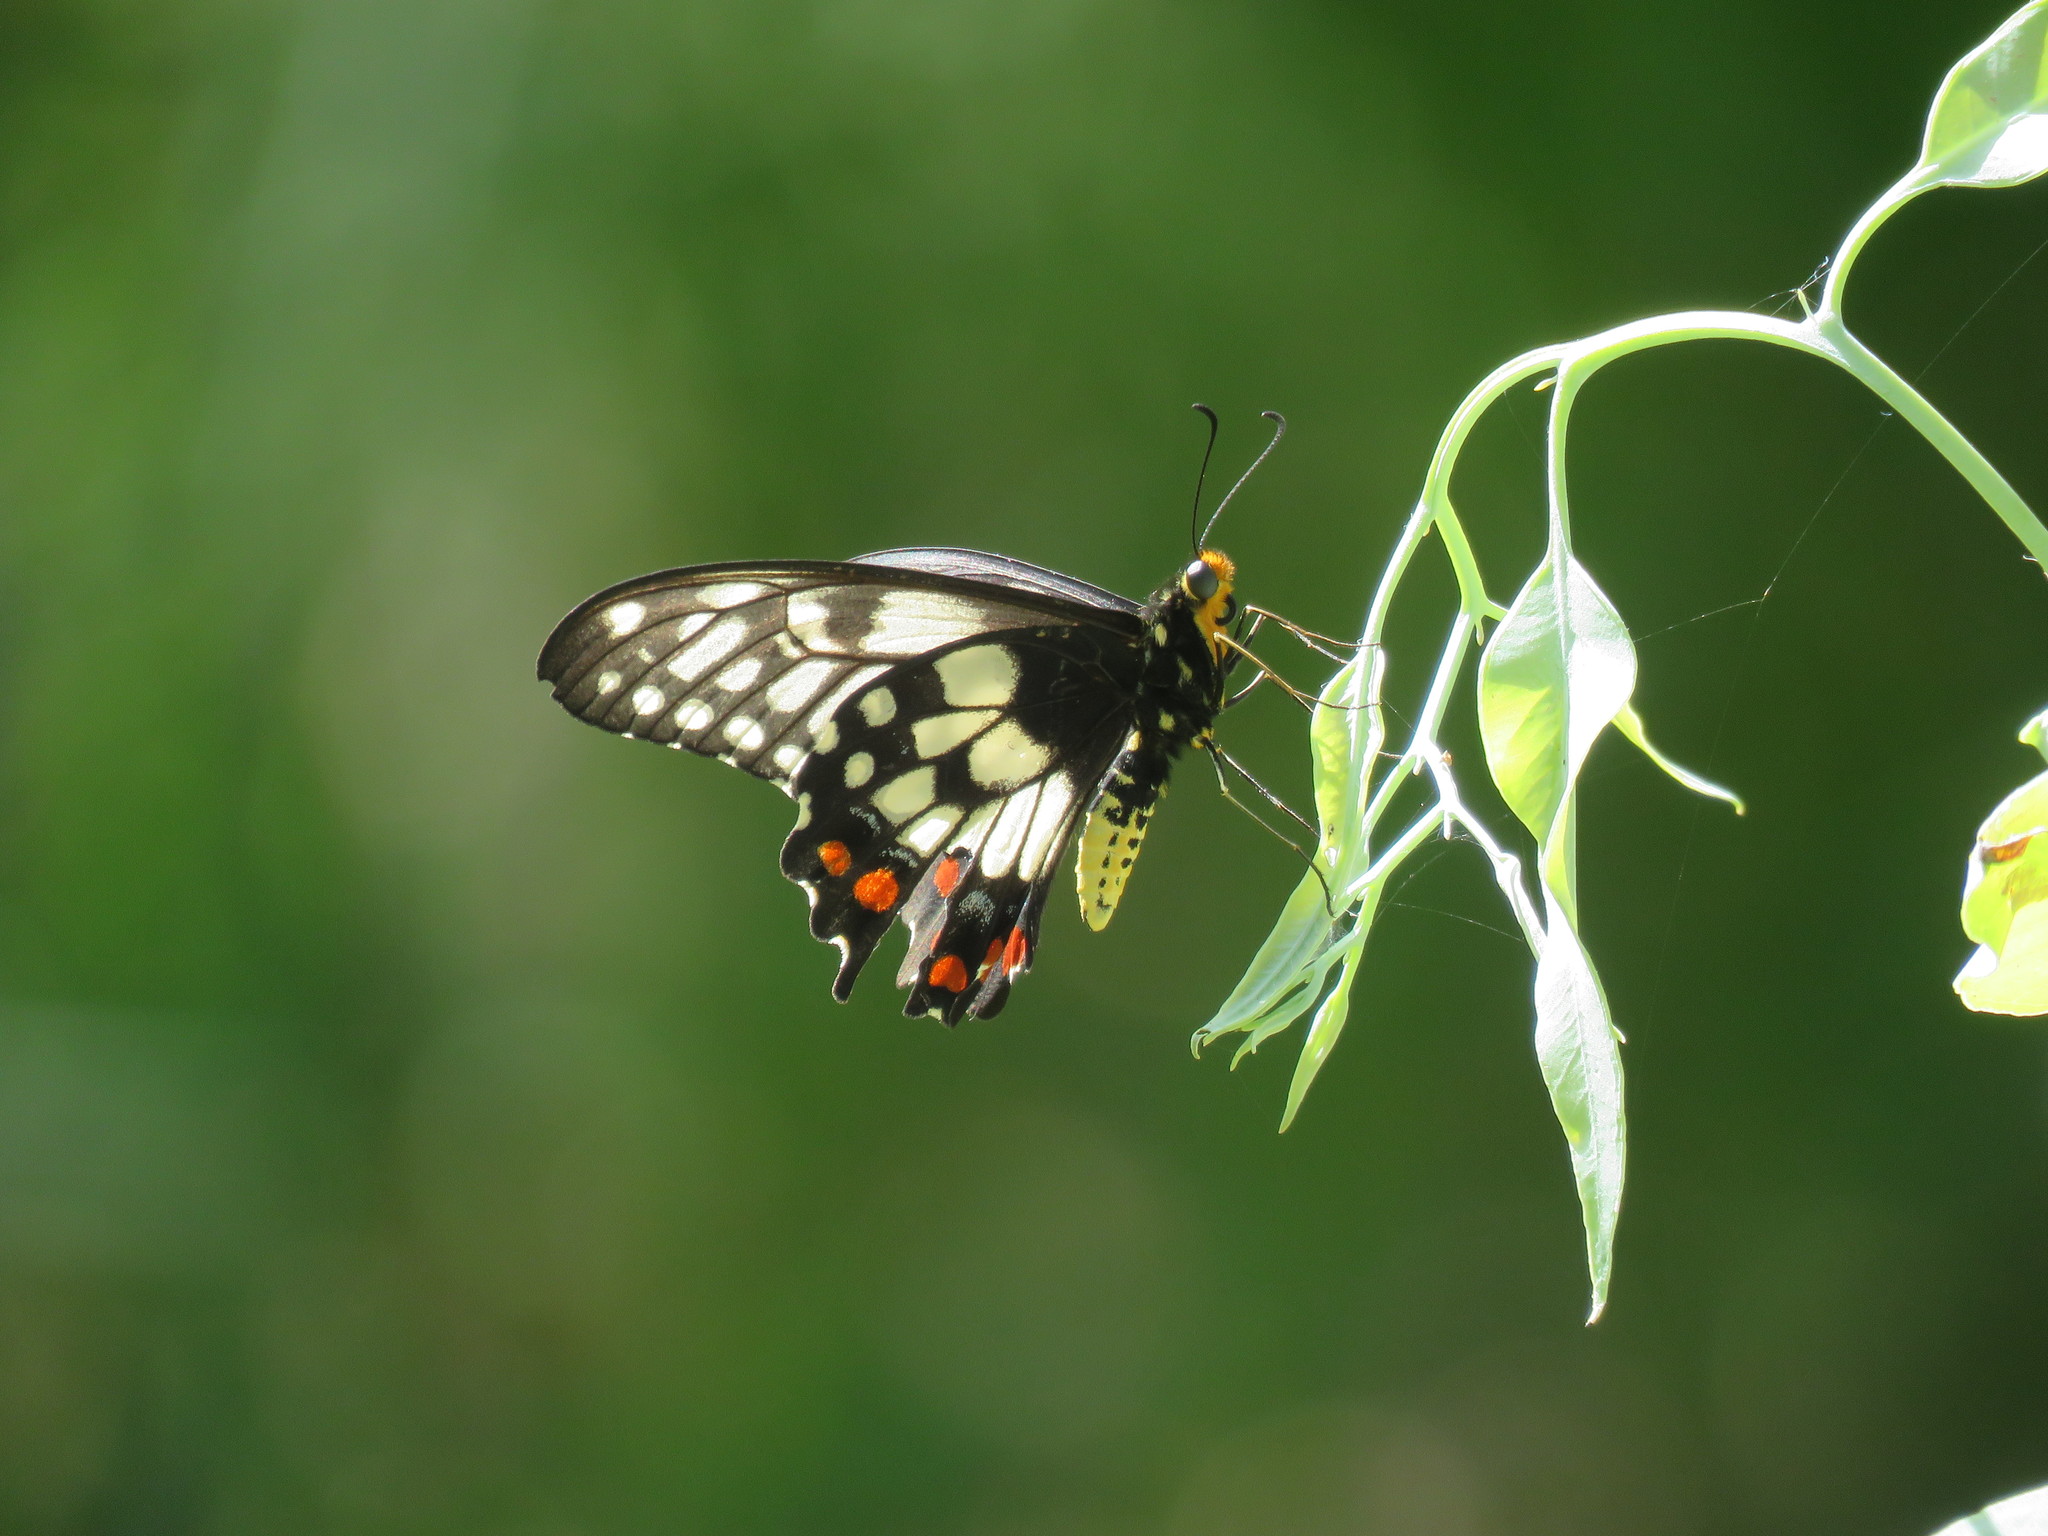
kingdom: Animalia
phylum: Arthropoda
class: Insecta
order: Lepidoptera
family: Papilionidae
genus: Papilio
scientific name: Papilio anactus
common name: Dingy swallowtail
